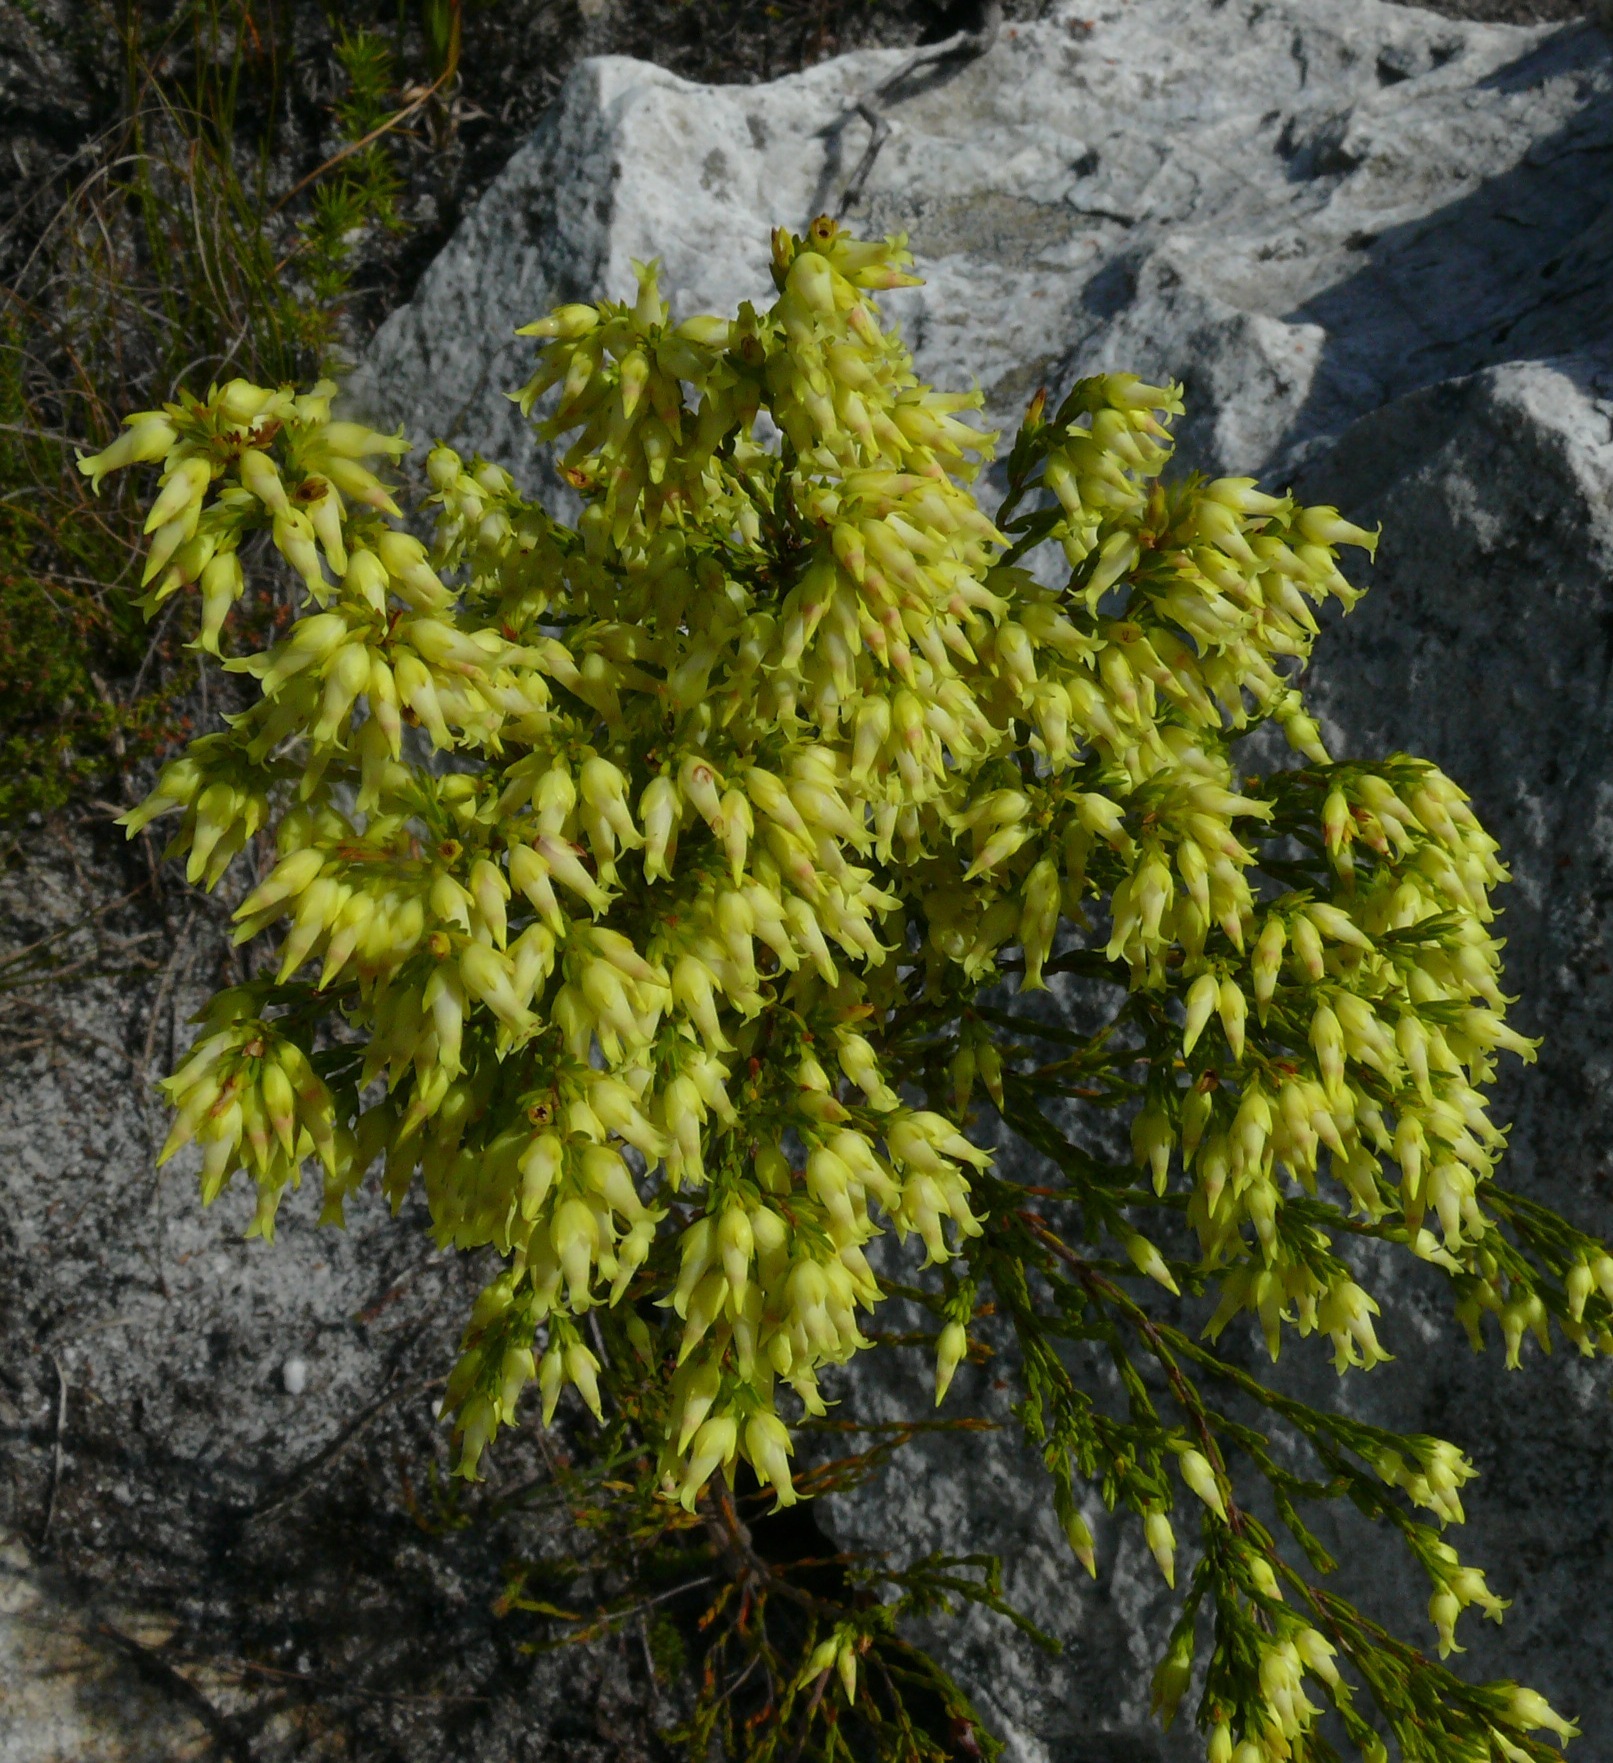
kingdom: Plantae
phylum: Tracheophyta
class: Magnoliopsida
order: Ericales
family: Ericaceae
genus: Erica
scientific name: Erica lutea
